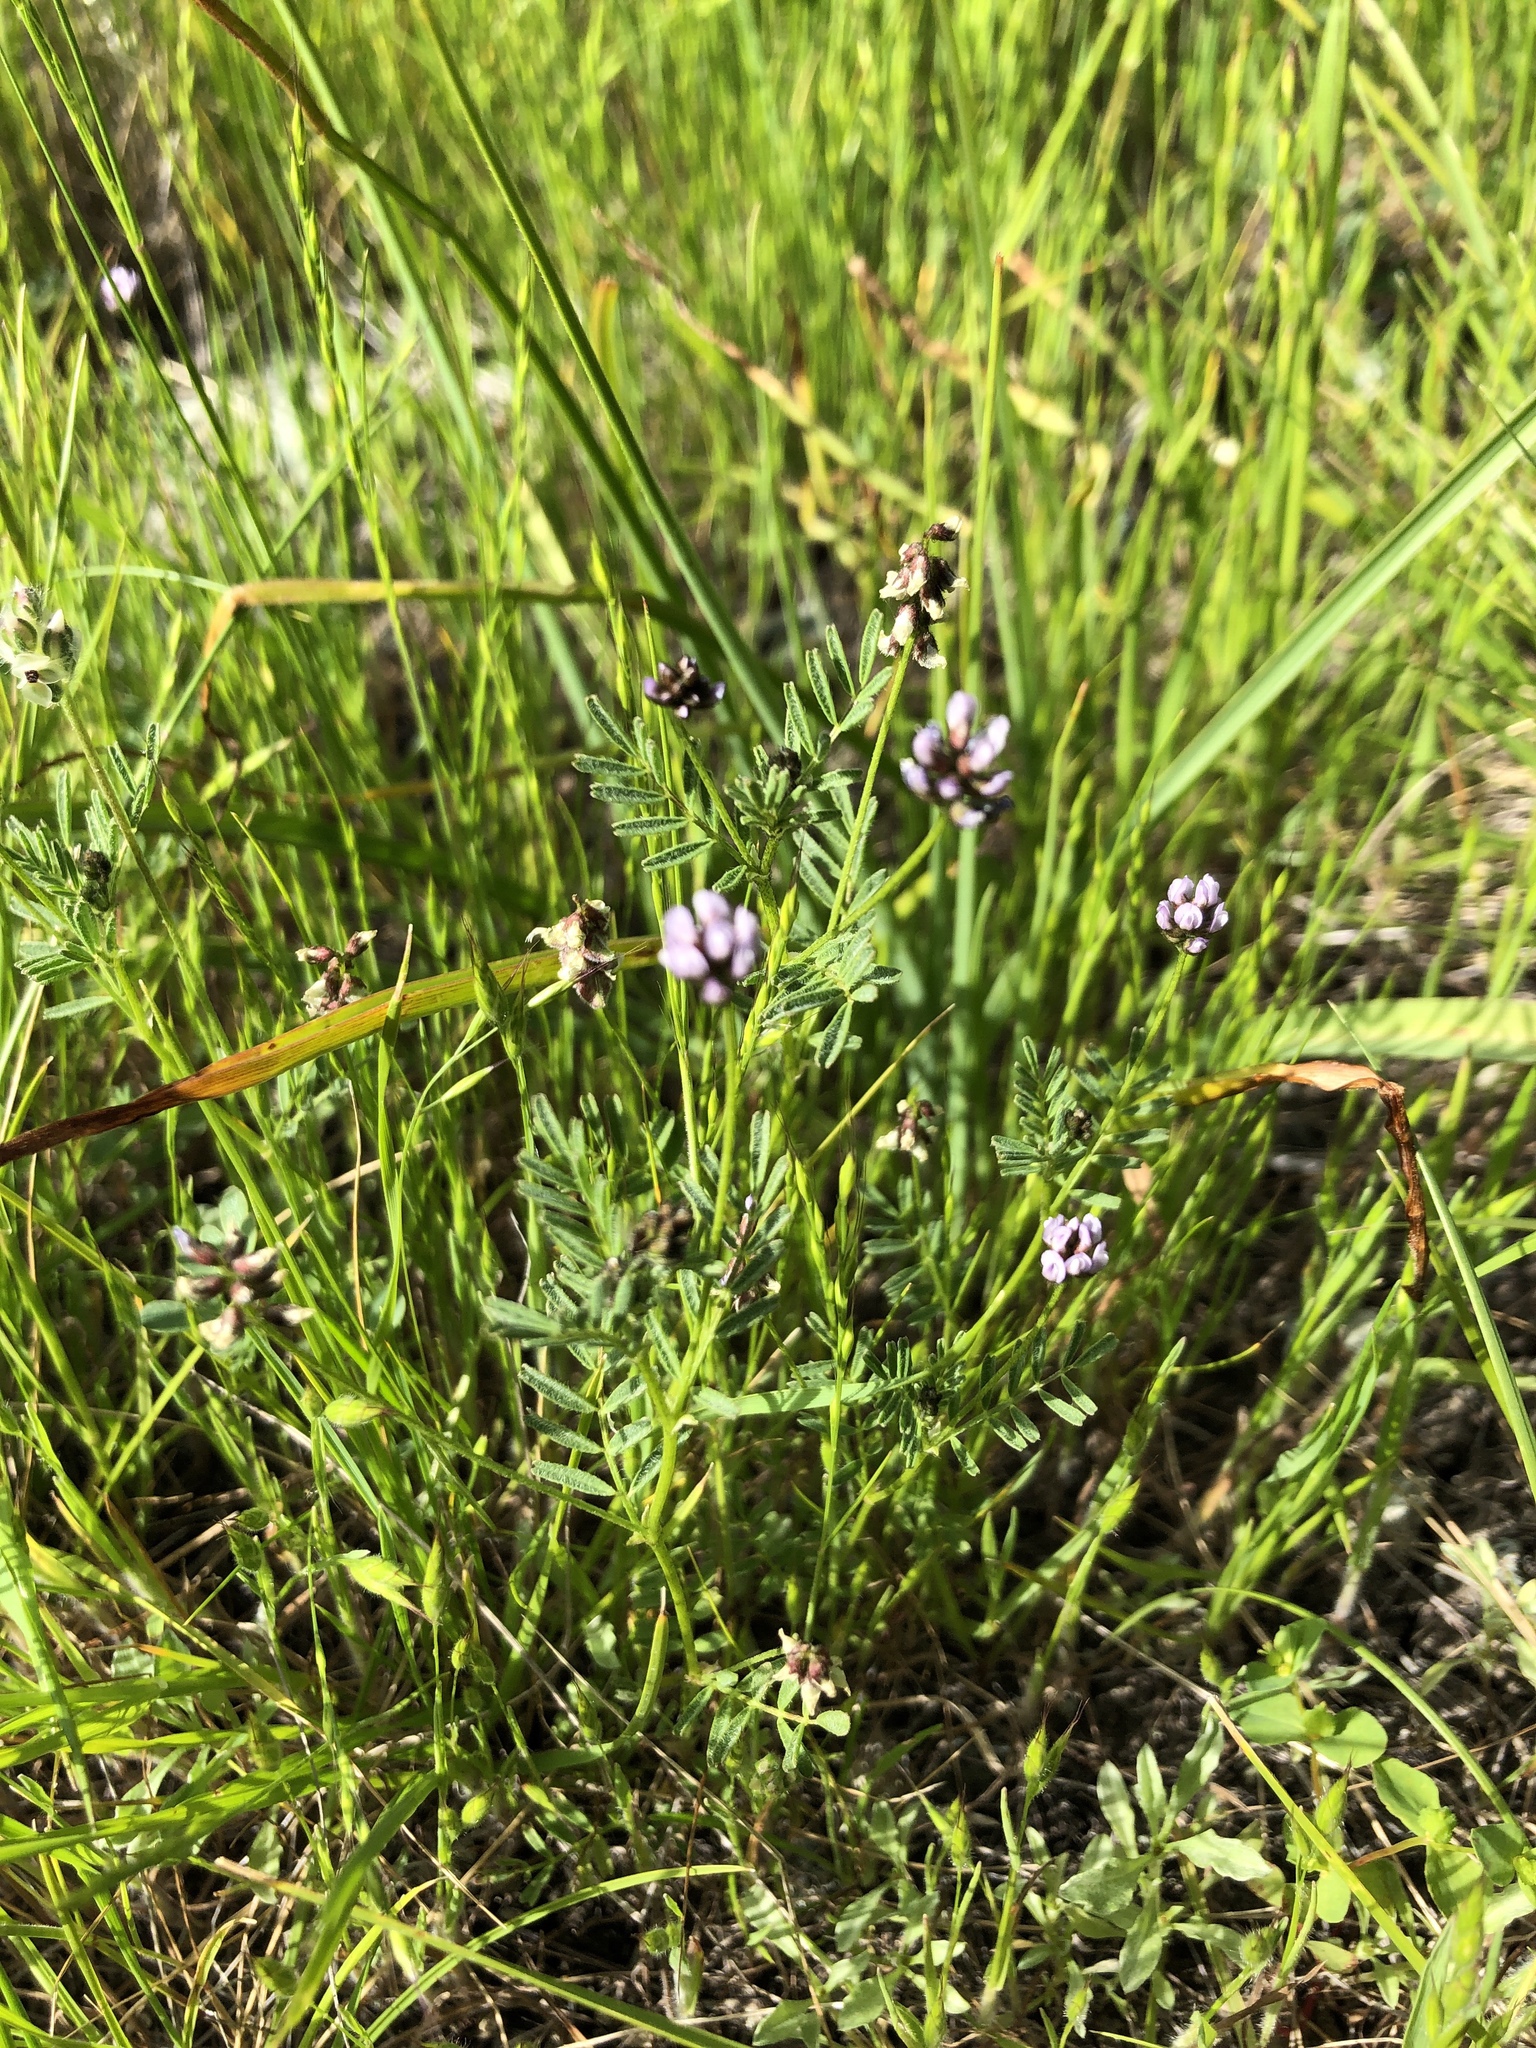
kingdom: Plantae
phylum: Tracheophyta
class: Magnoliopsida
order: Fabales
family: Fabaceae
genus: Astragalus
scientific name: Astragalus gambelianus
